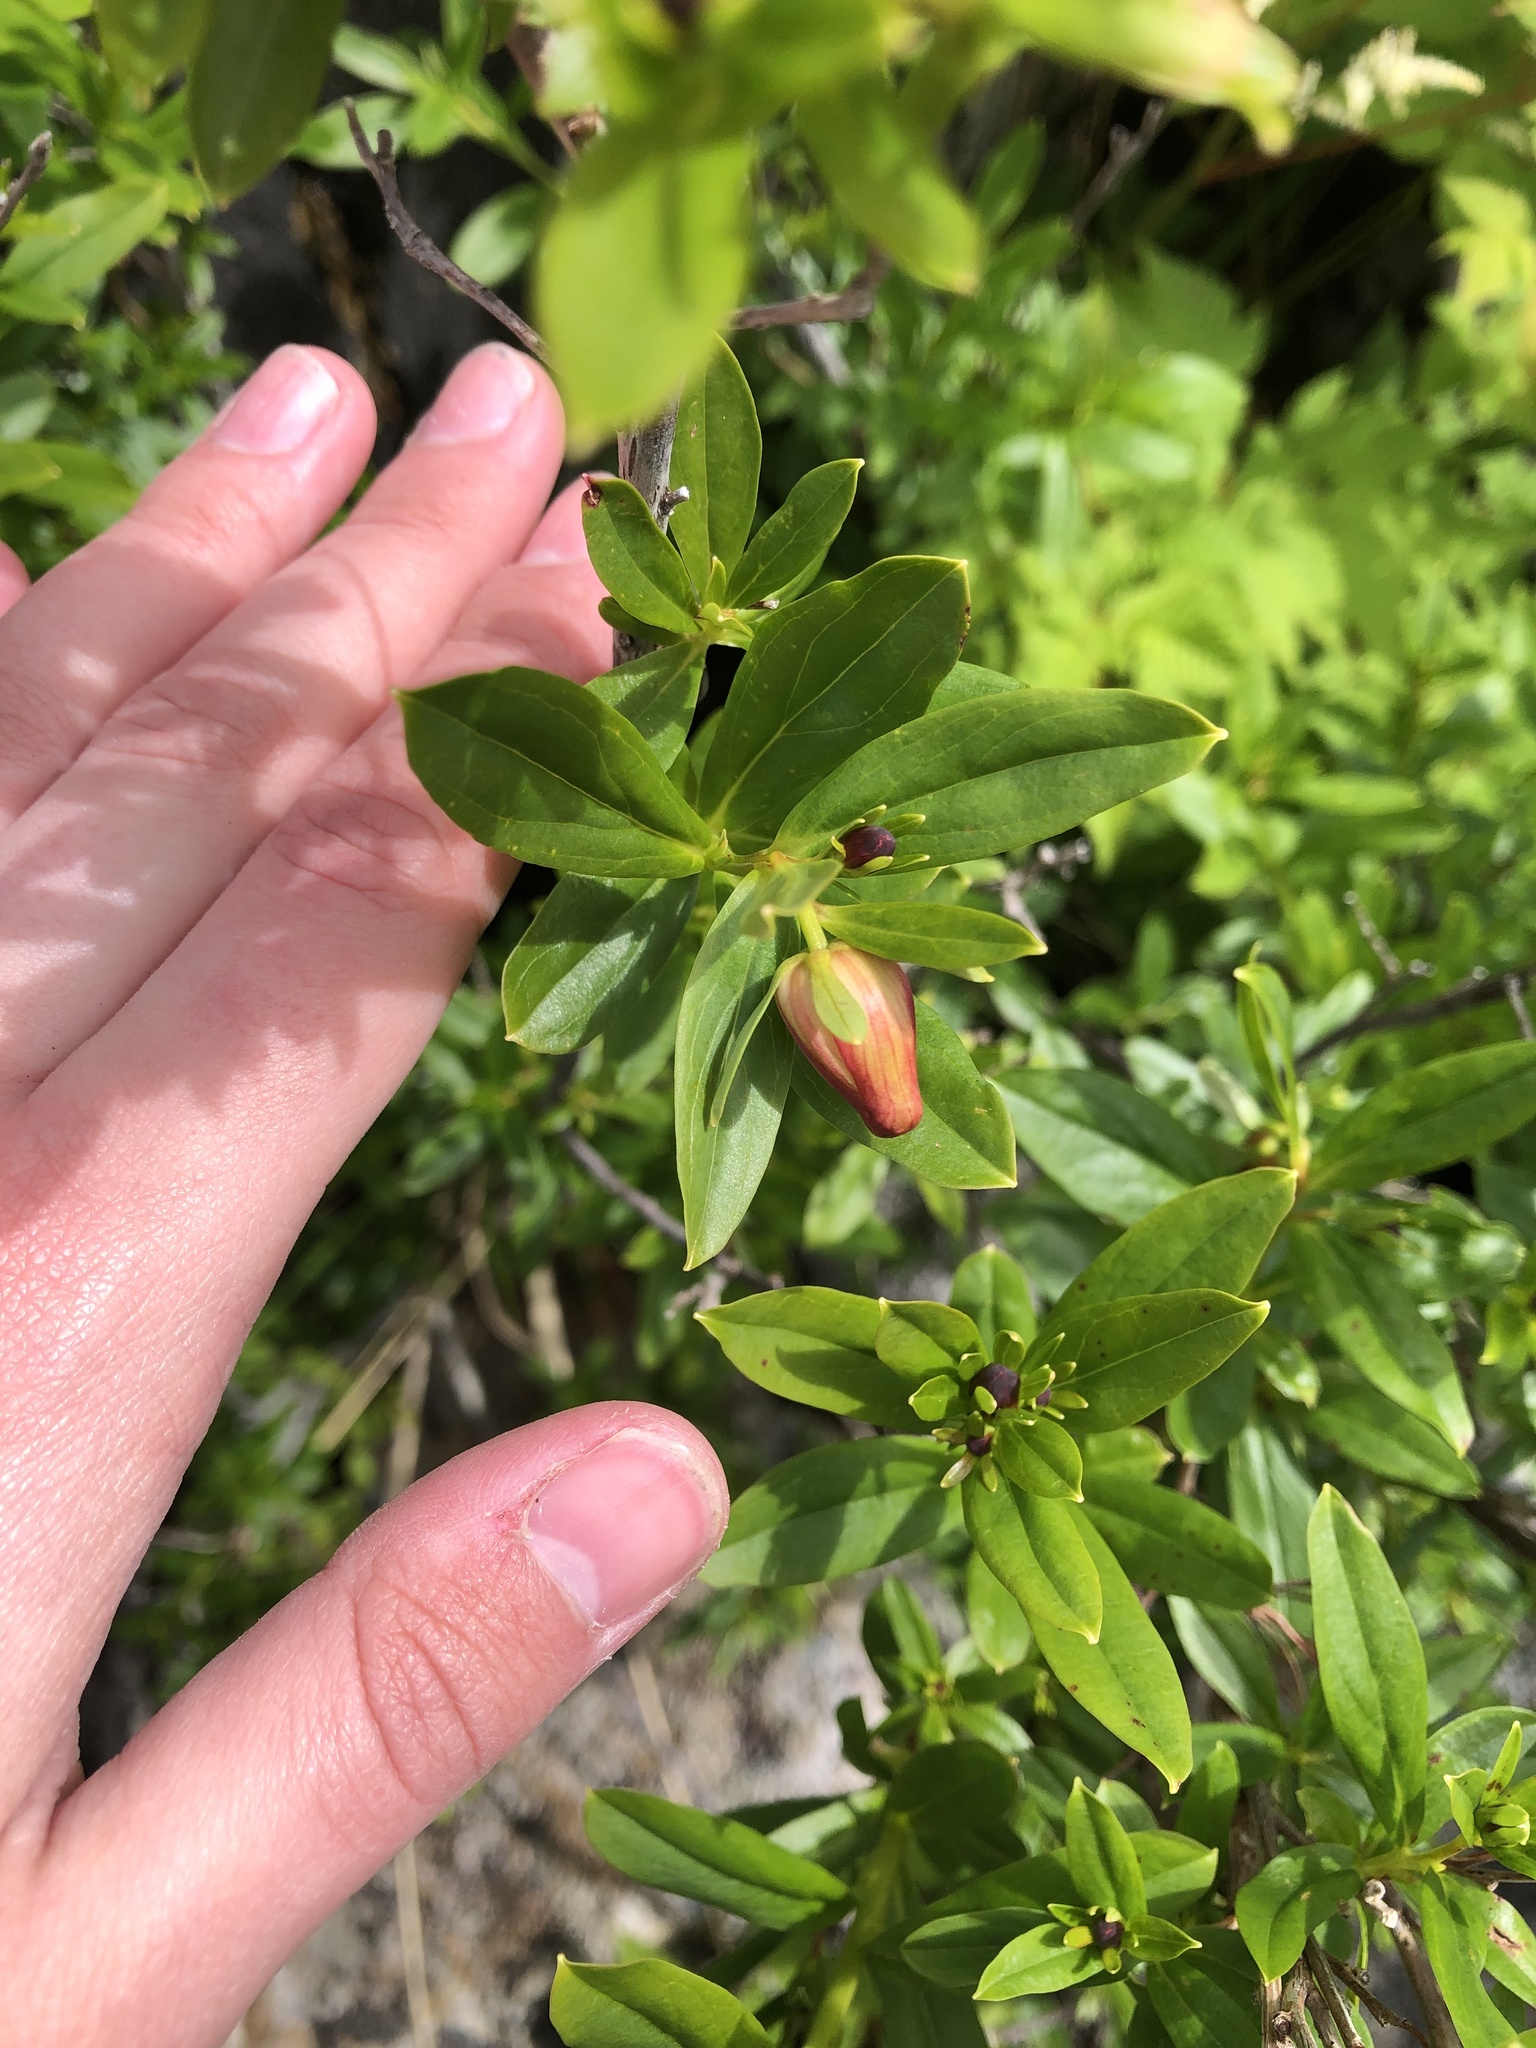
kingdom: Plantae
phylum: Tracheophyta
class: Magnoliopsida
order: Ericales
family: Ericaceae
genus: Elliottia
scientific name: Elliottia pyroliflora
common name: Copperbush
